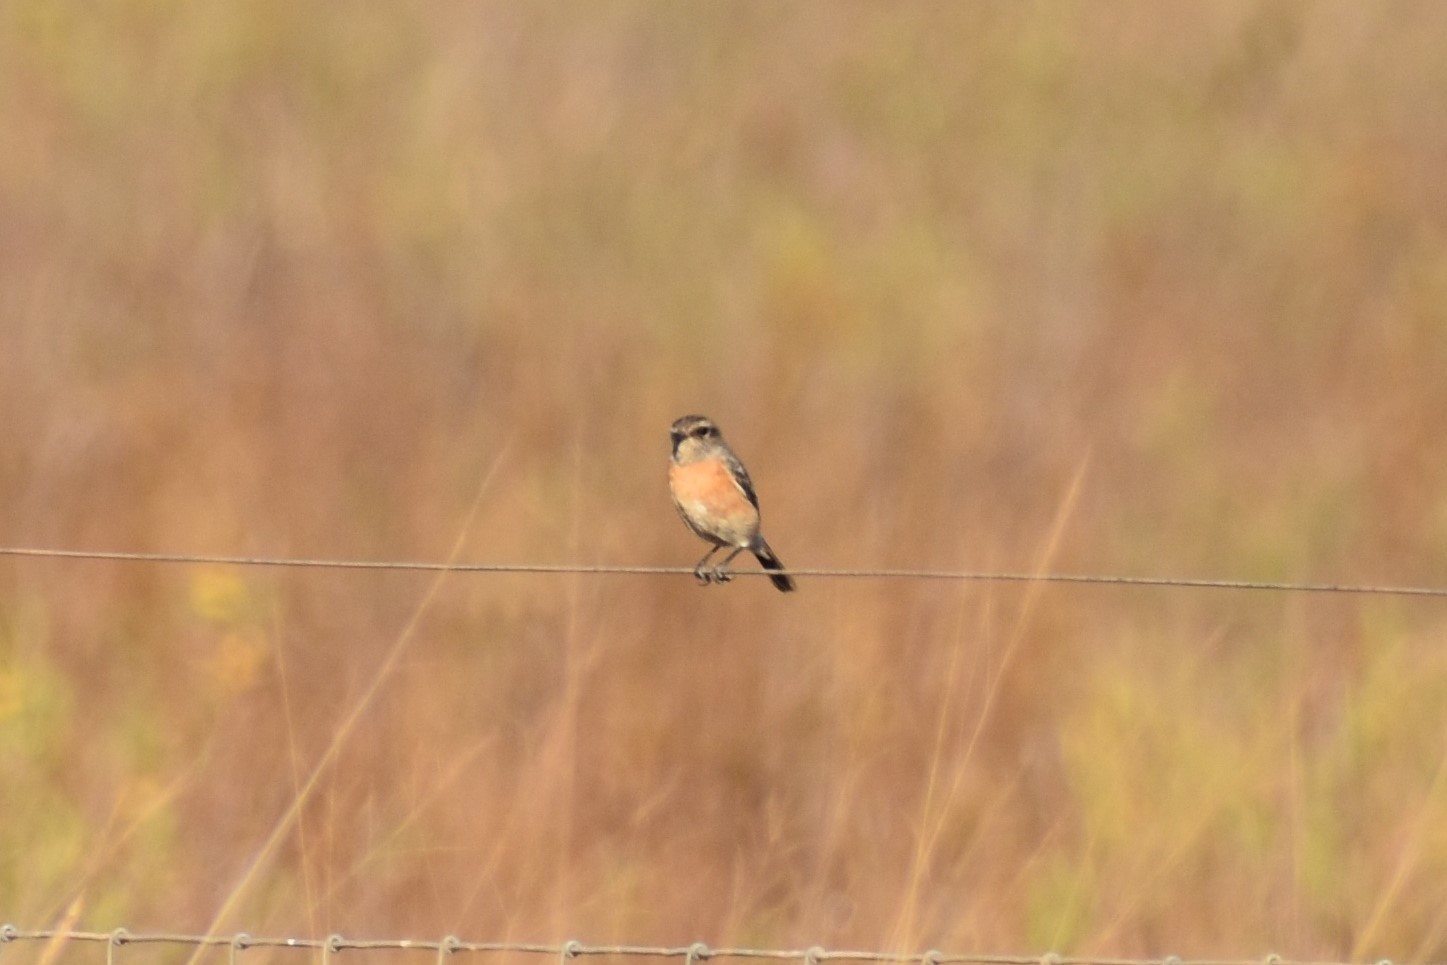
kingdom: Animalia
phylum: Chordata
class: Aves
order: Passeriformes
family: Muscicapidae
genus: Saxicola
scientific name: Saxicola torquatus
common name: African stonechat
